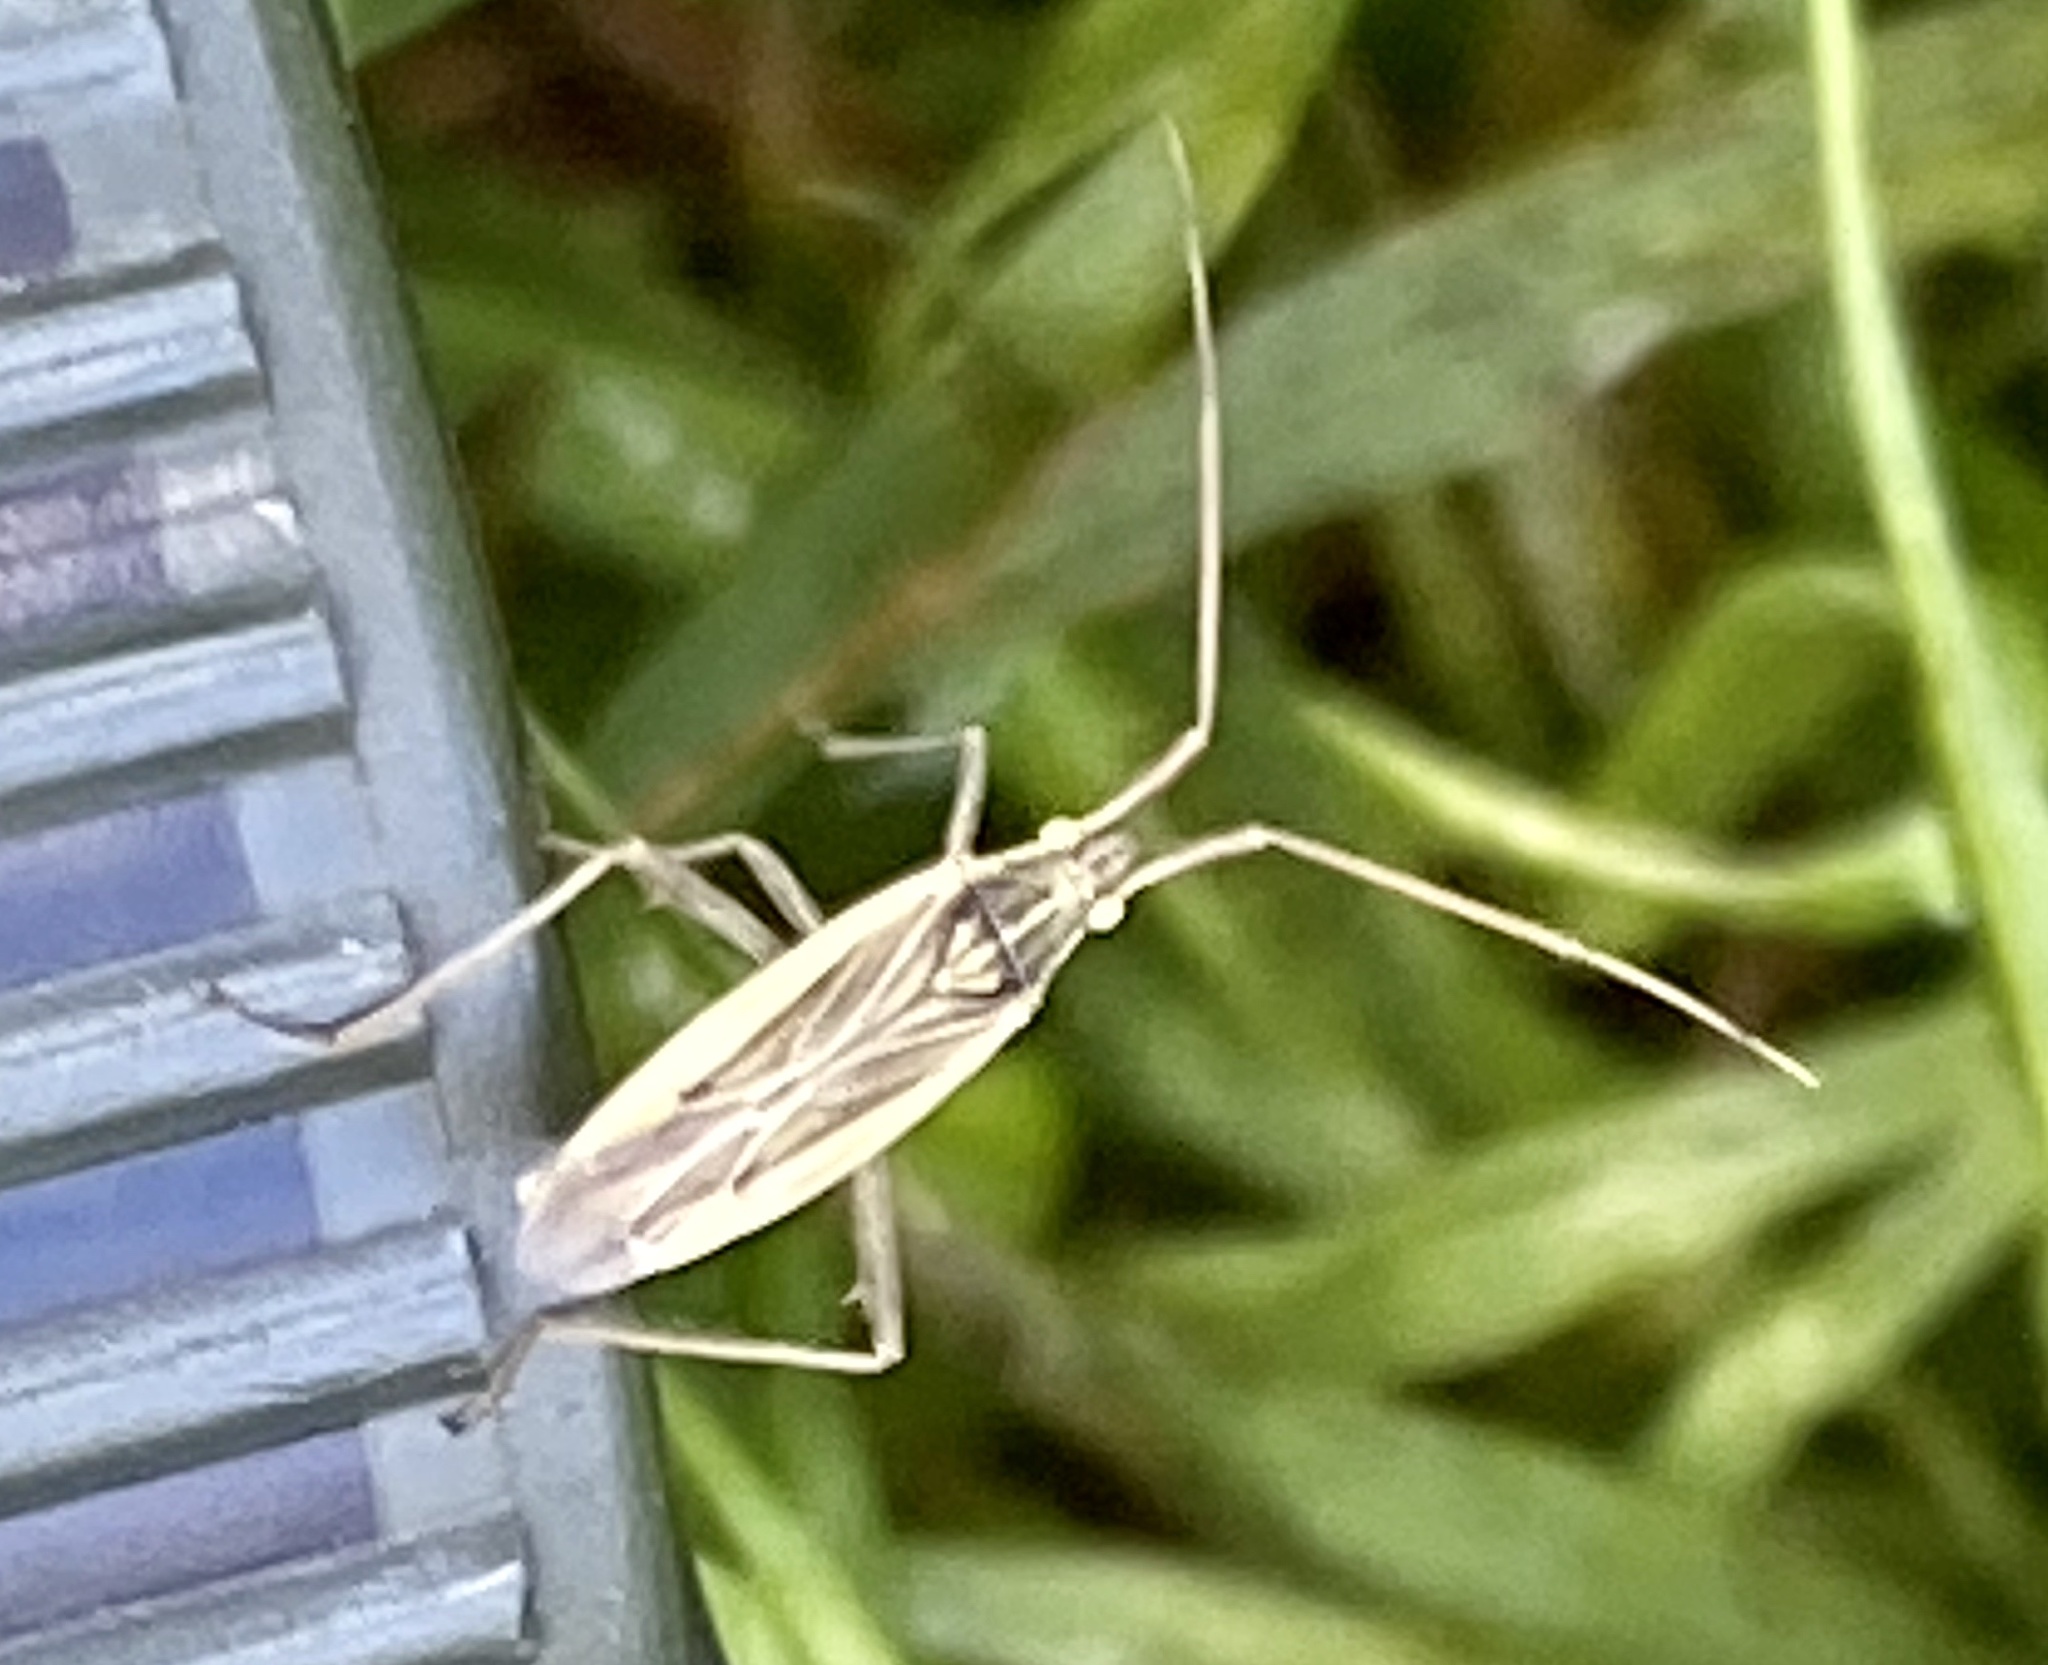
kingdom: Animalia
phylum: Arthropoda
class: Insecta
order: Hemiptera
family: Miridae
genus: Stenodema
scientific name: Stenodema calcarata
